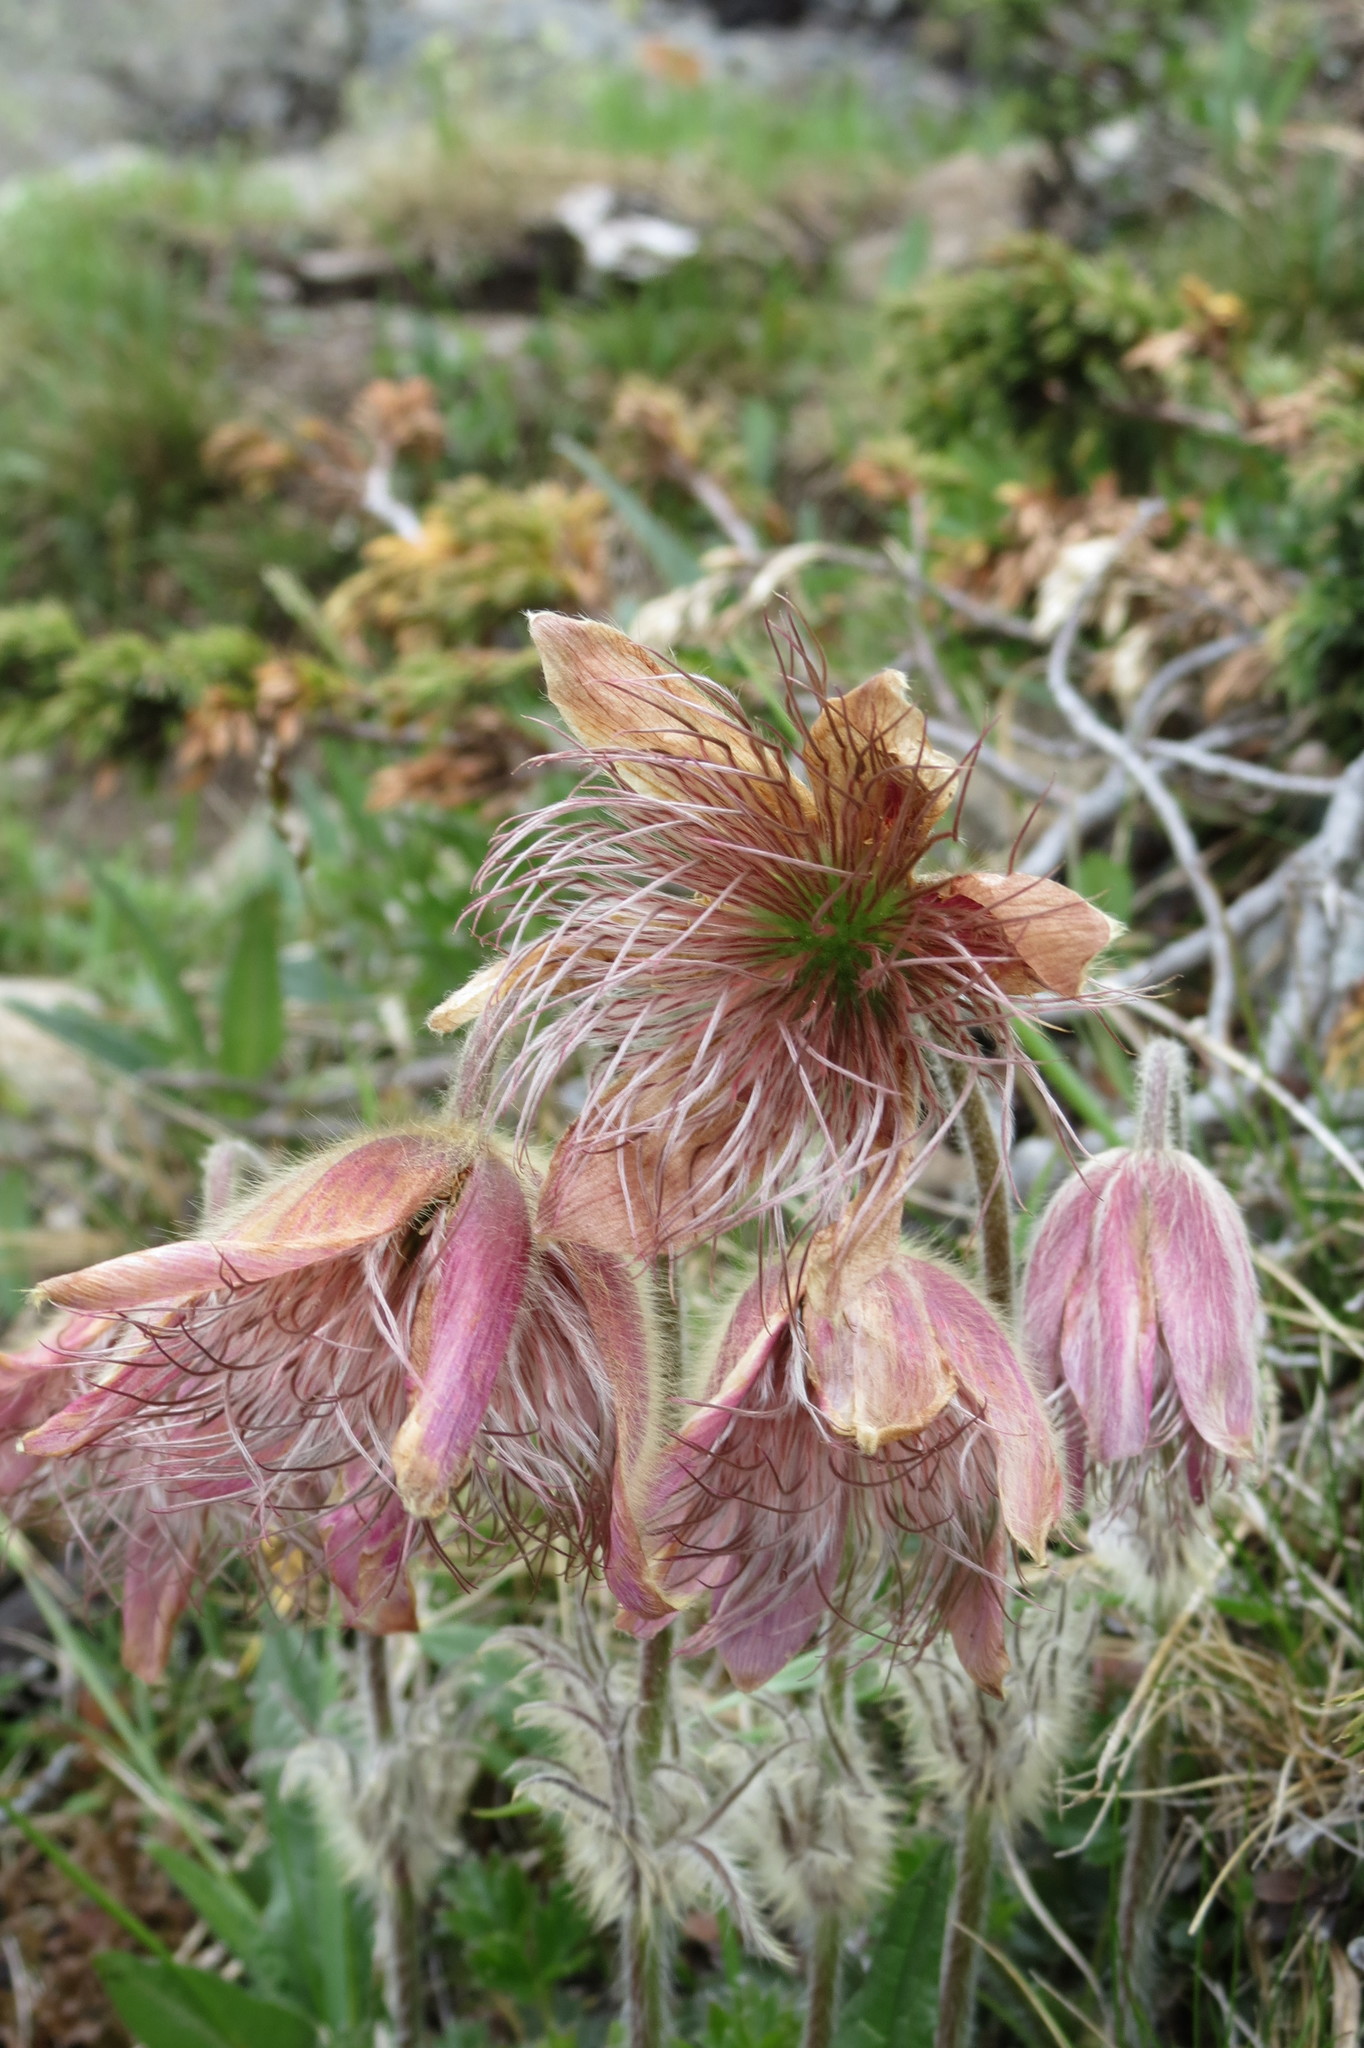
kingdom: Plantae
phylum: Tracheophyta
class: Magnoliopsida
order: Ranunculales
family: Ranunculaceae
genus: Pulsatilla
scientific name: Pulsatilla vernalis
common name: Spring pasque flower
